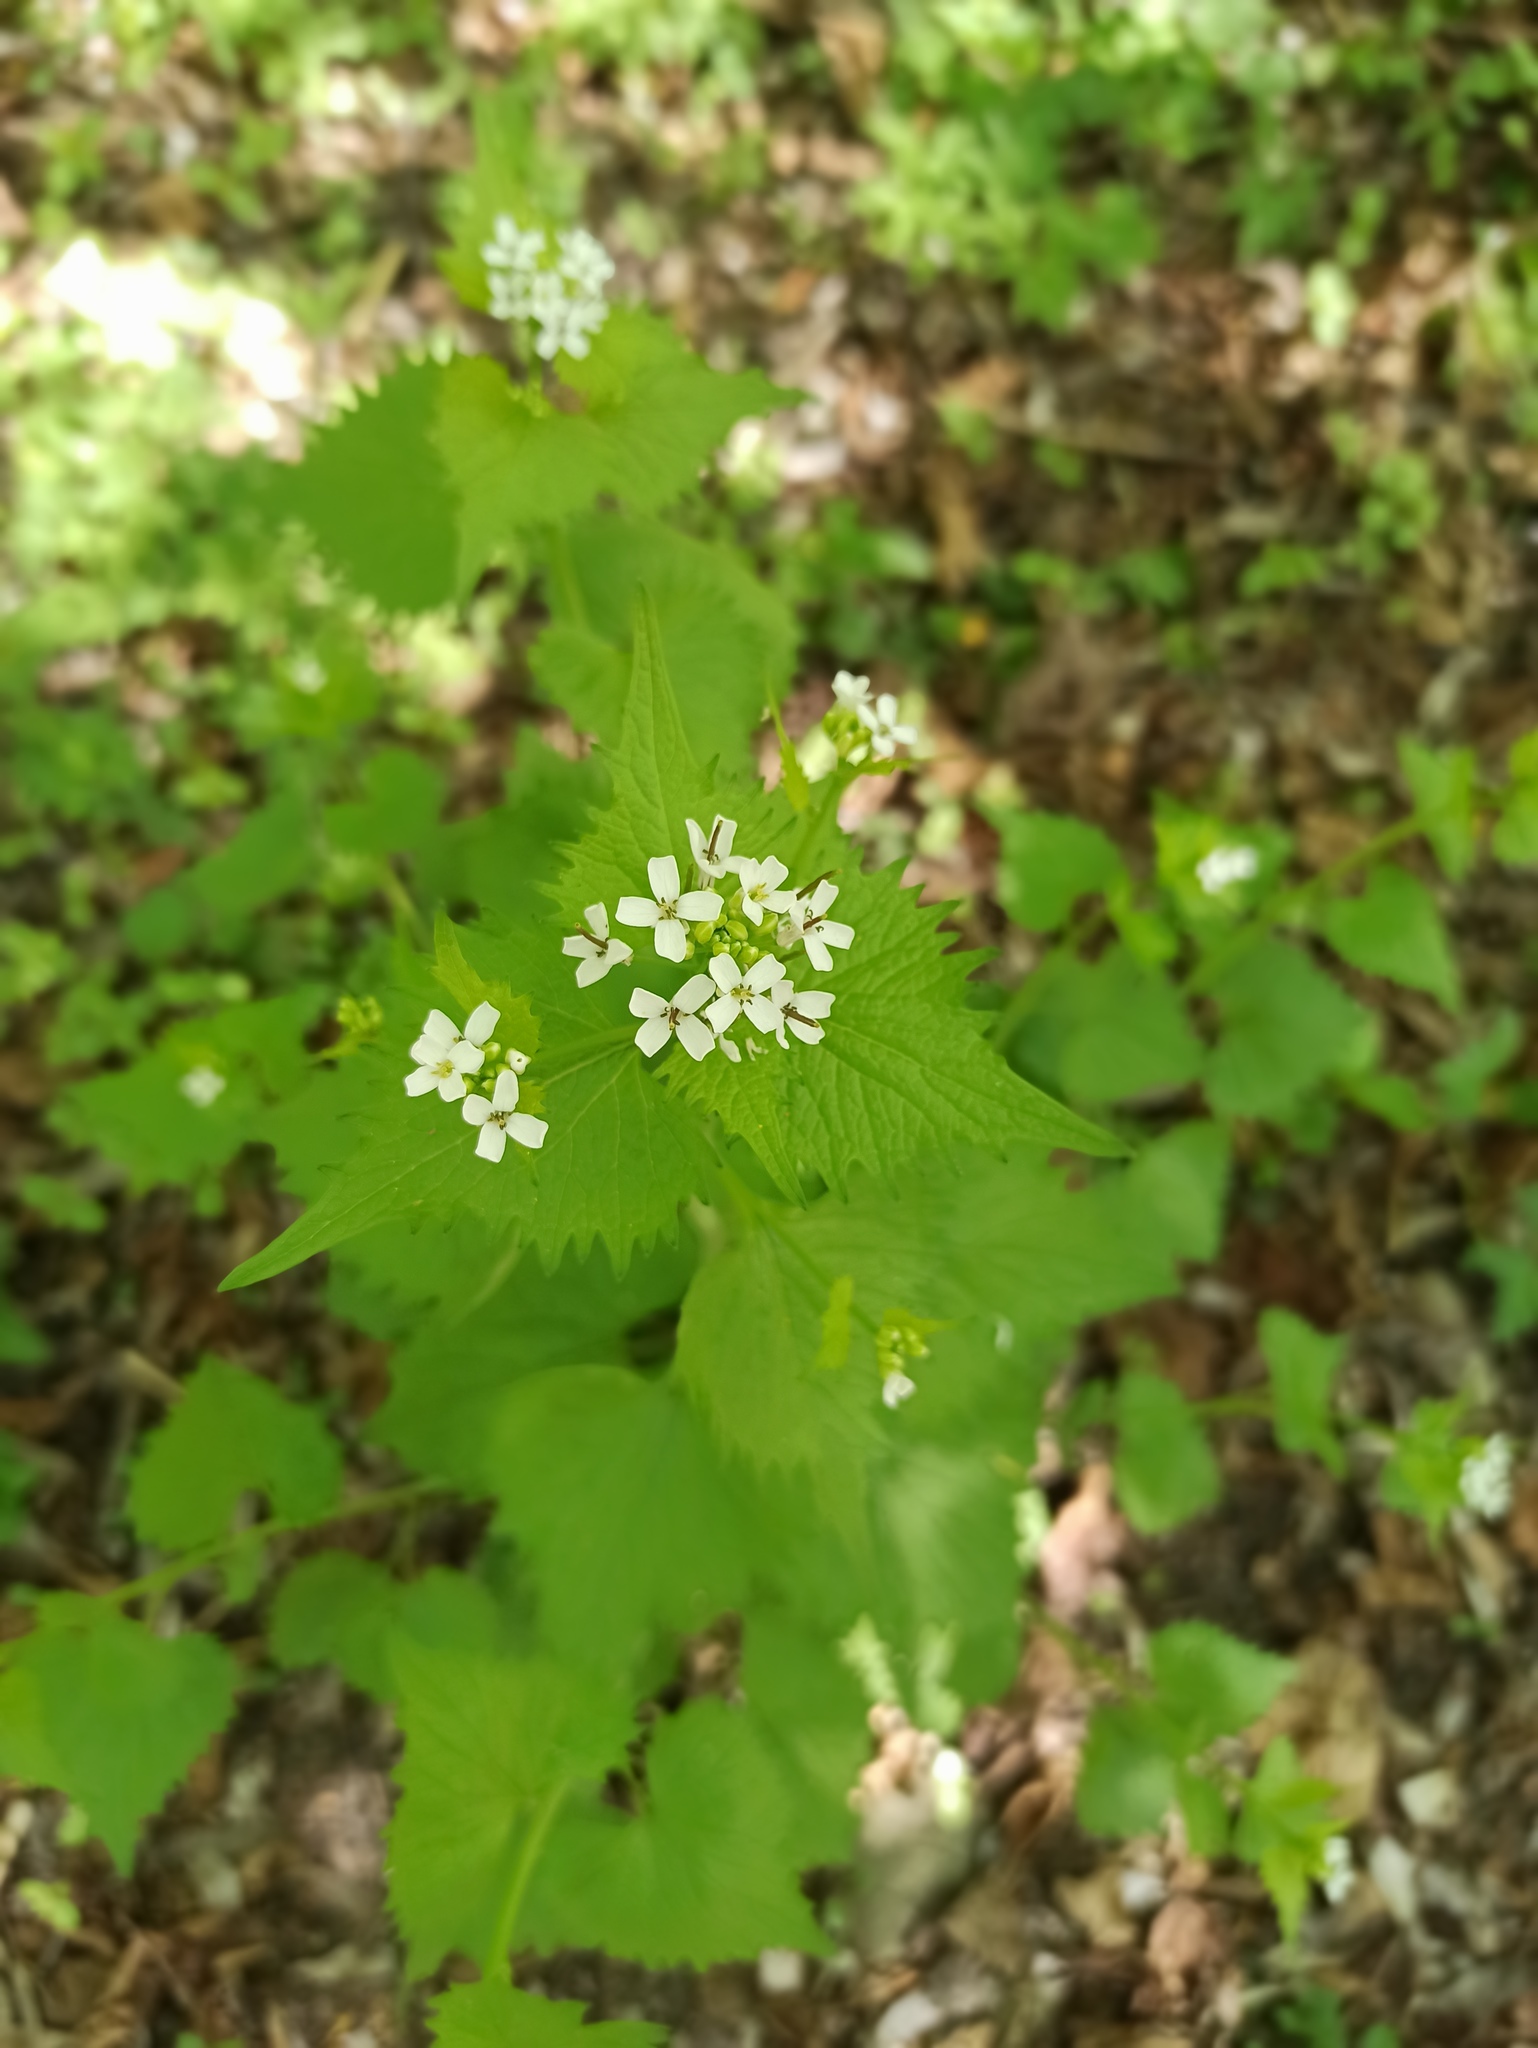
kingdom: Plantae
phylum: Tracheophyta
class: Magnoliopsida
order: Brassicales
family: Brassicaceae
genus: Alliaria
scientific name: Alliaria petiolata
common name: Garlic mustard
